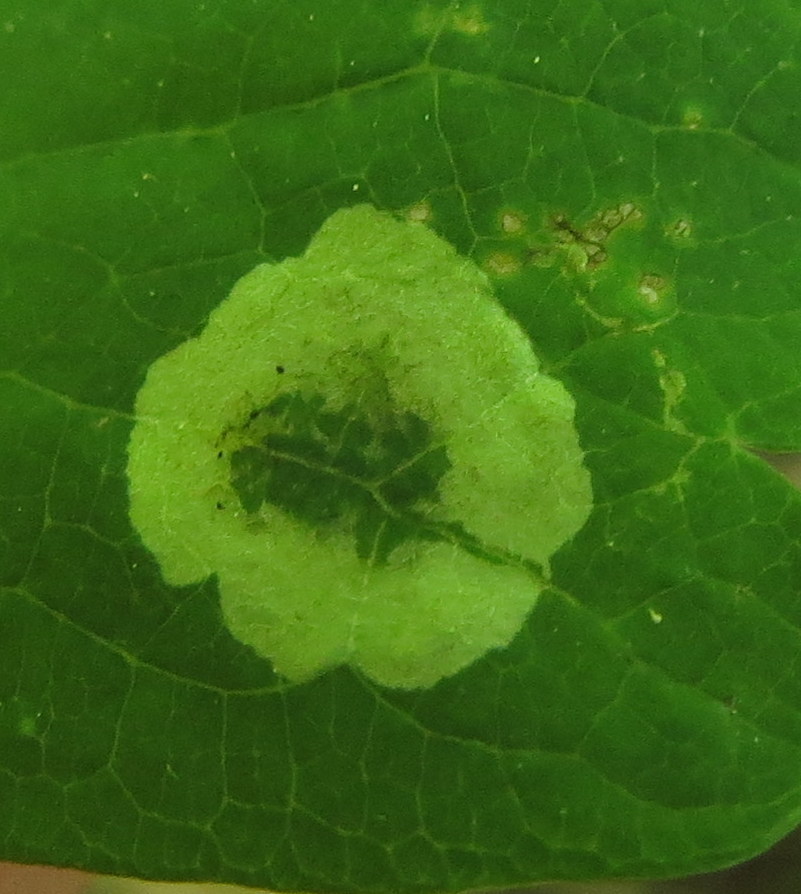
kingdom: Animalia
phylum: Arthropoda
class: Insecta
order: Diptera
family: Agromyzidae
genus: Phytomyza
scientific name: Phytomyza plumiseta
